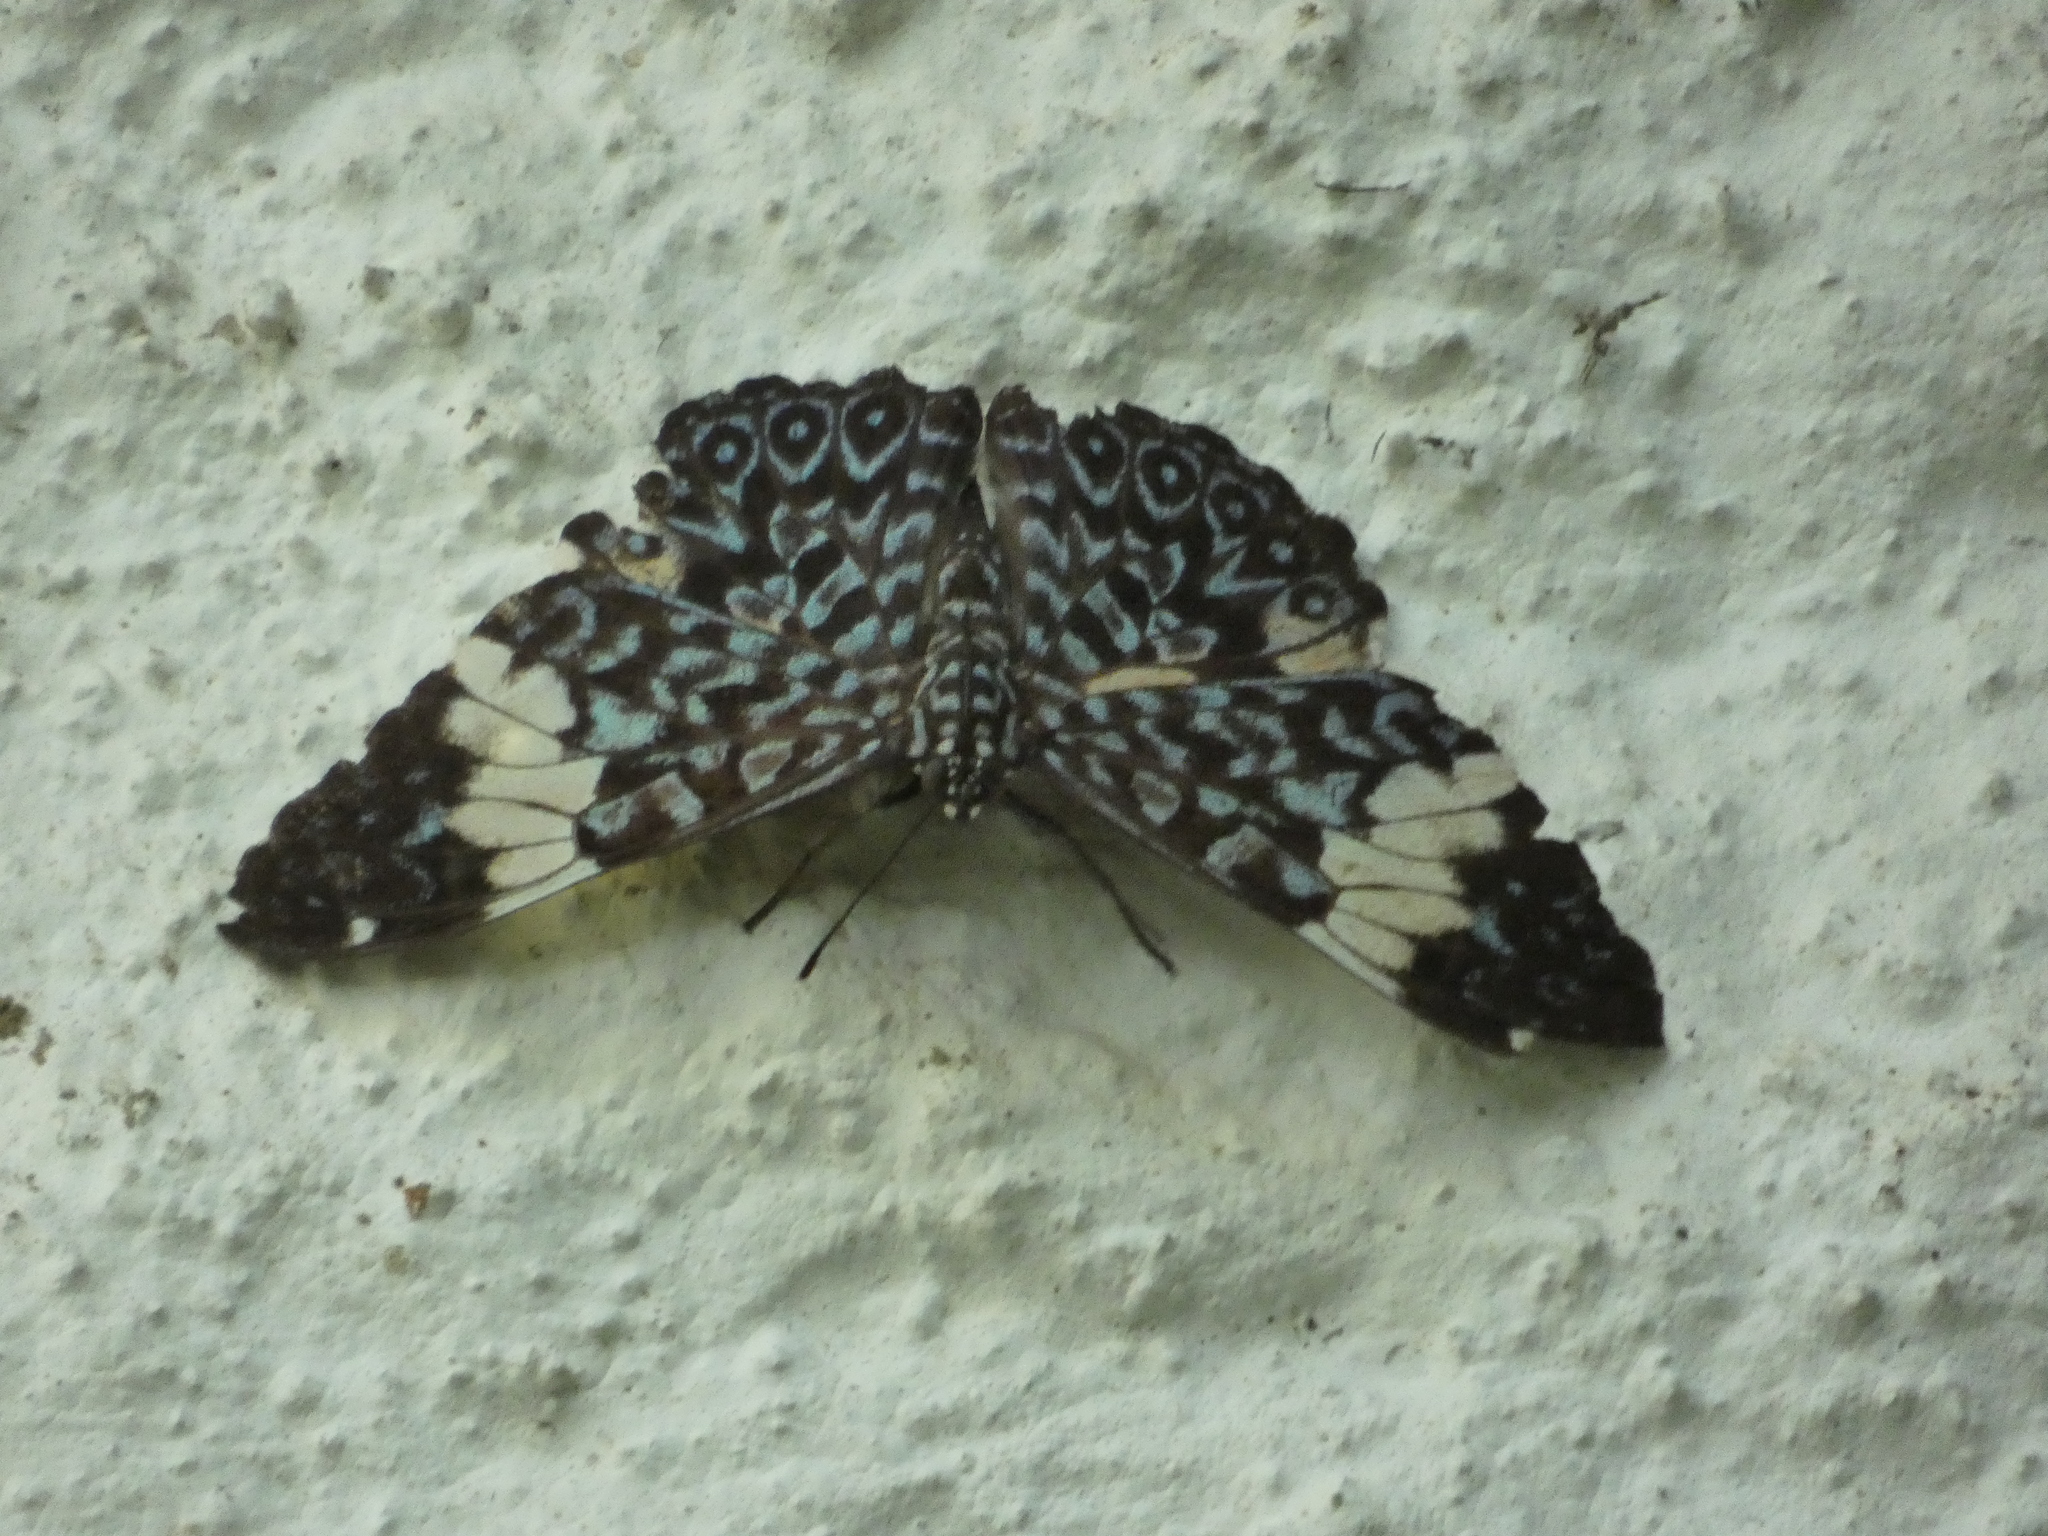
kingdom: Animalia
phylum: Arthropoda
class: Insecta
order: Lepidoptera
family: Nymphalidae
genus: Hamadryas
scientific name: Hamadryas amphinome
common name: Red cracker
